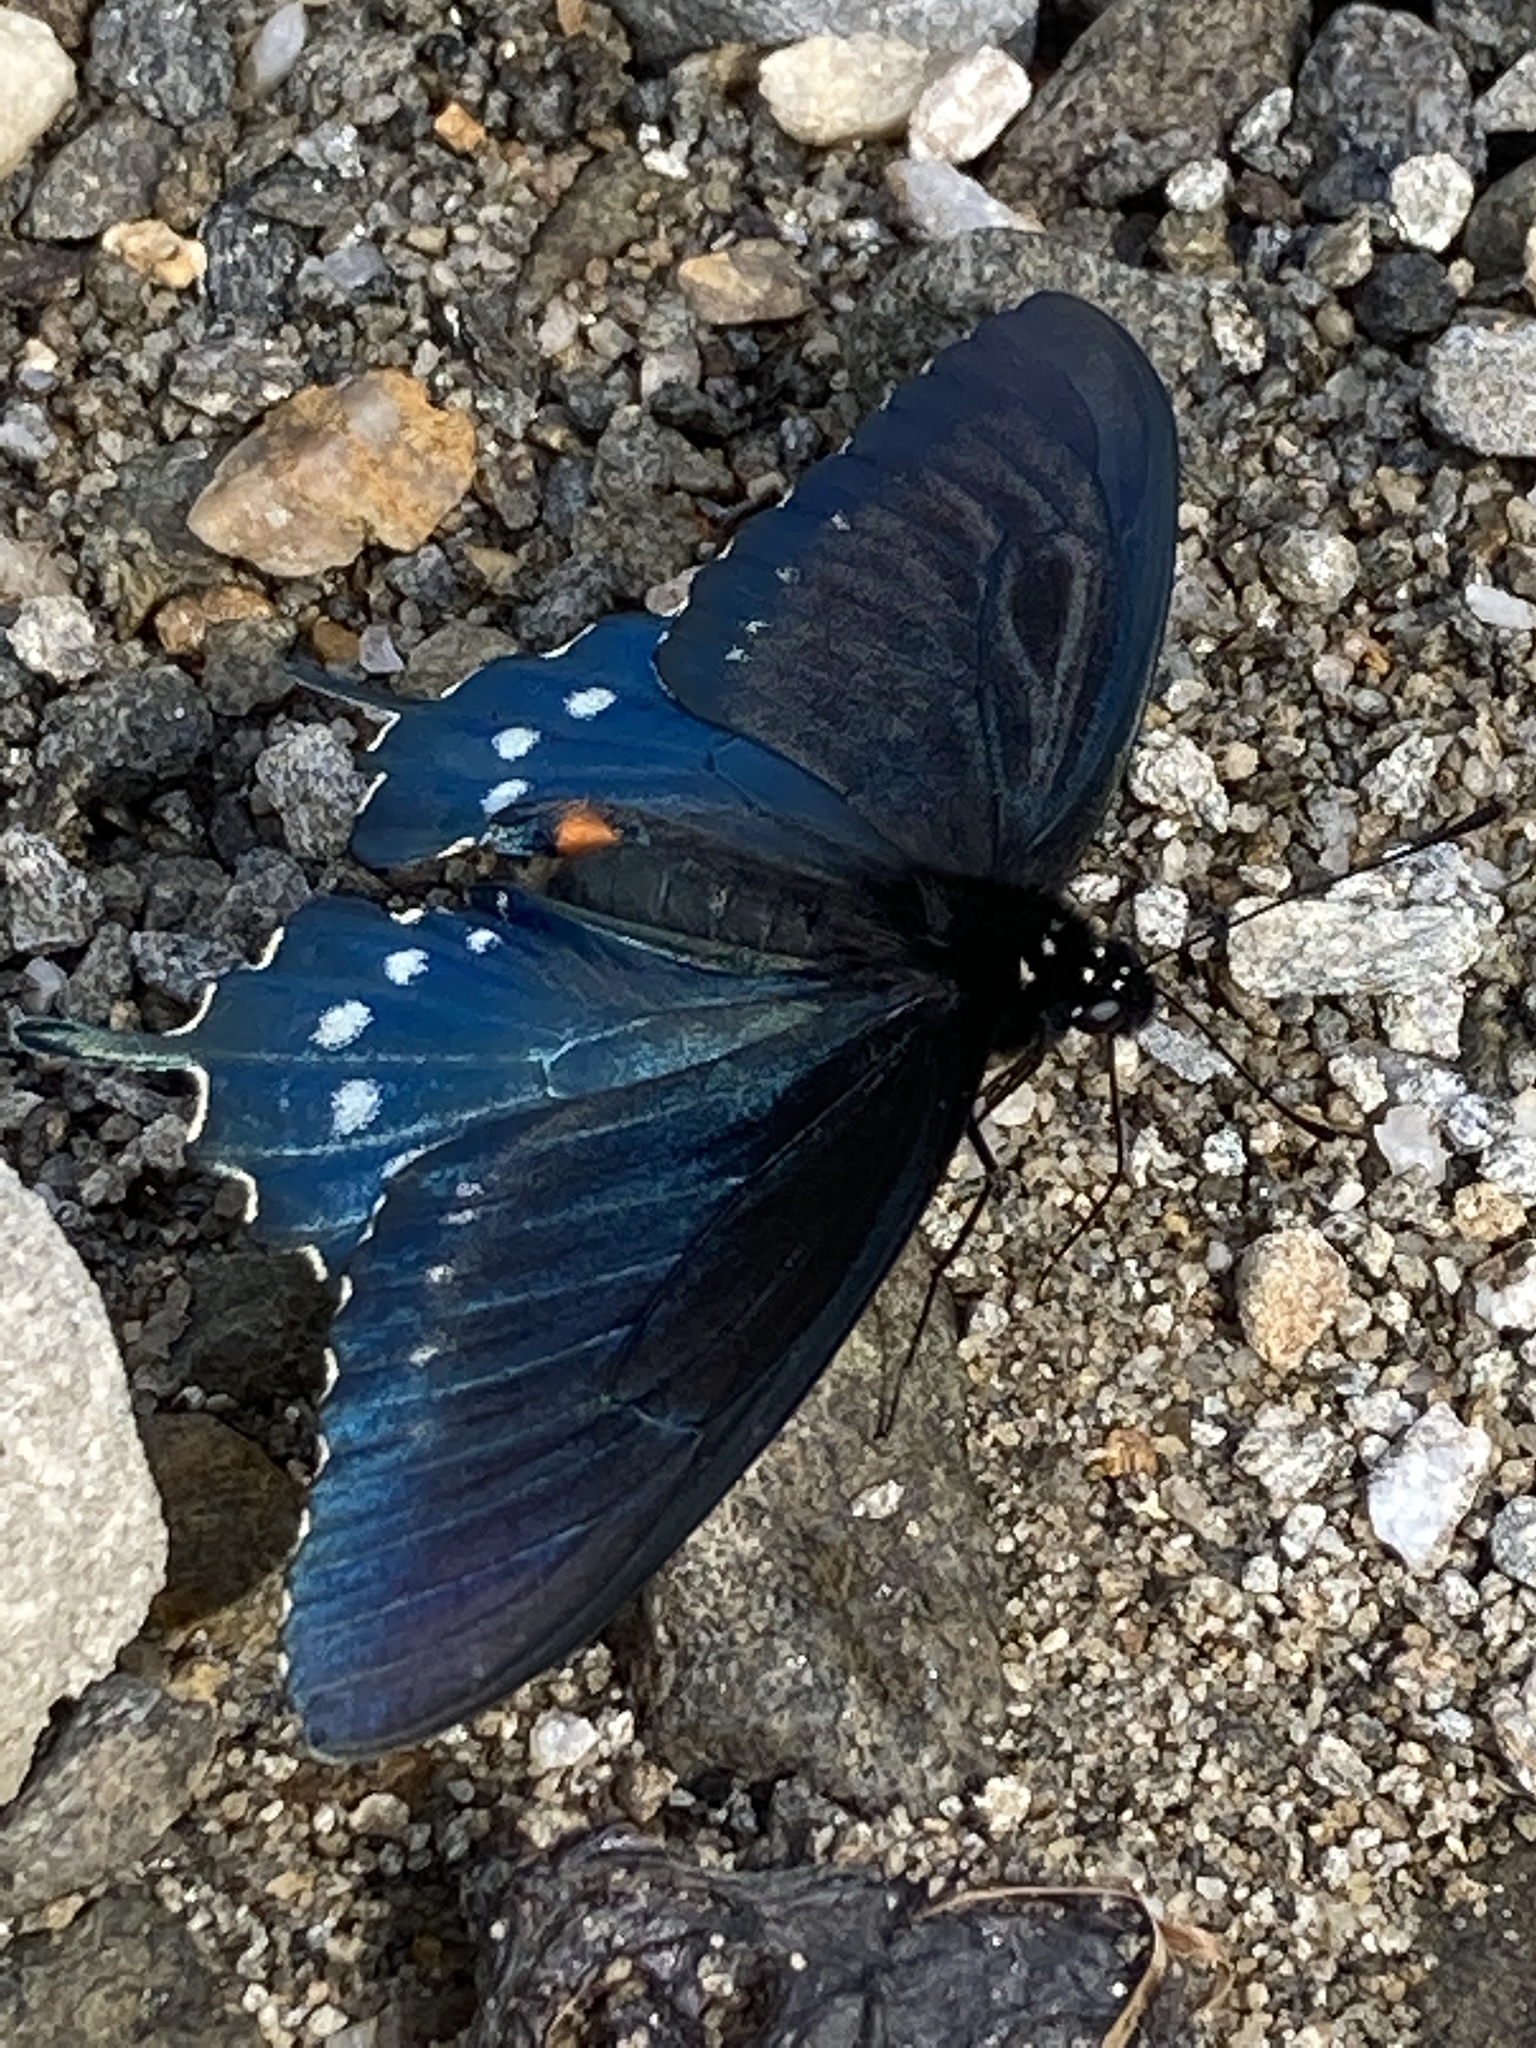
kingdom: Animalia
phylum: Arthropoda
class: Insecta
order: Lepidoptera
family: Papilionidae
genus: Battus
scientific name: Battus philenor
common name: Pipevine swallowtail
